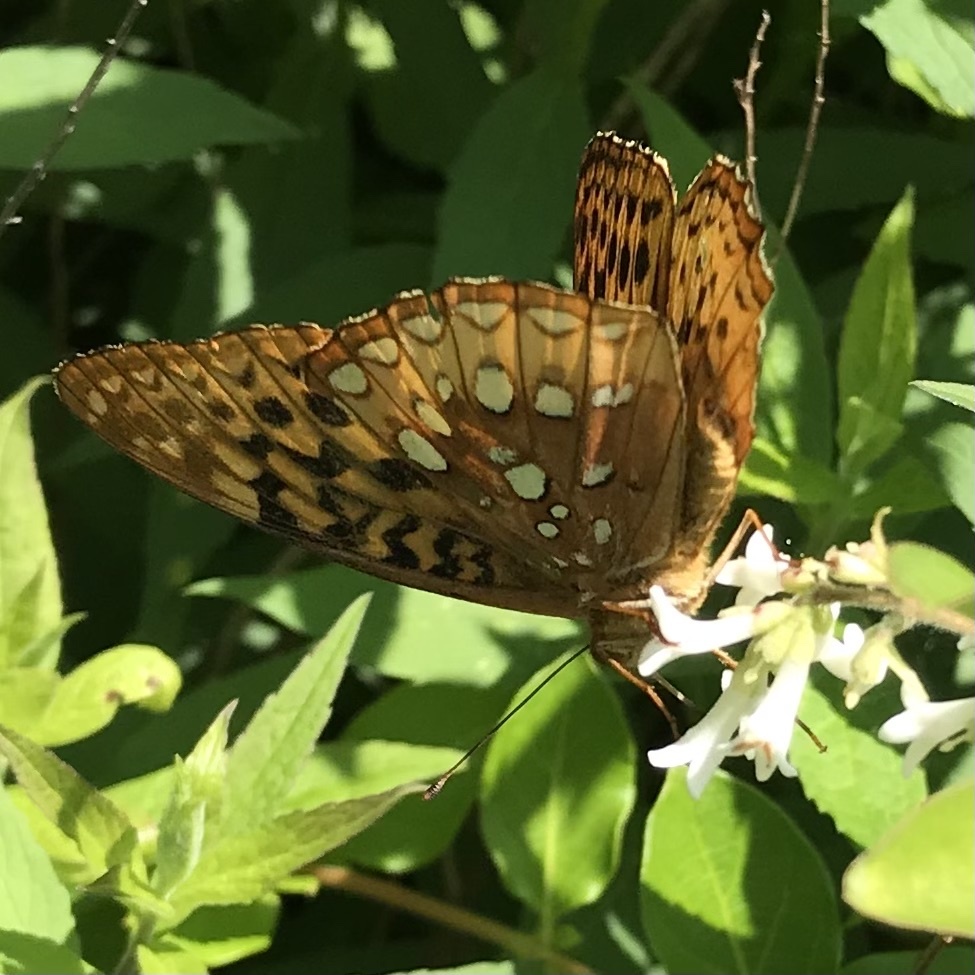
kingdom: Animalia
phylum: Arthropoda
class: Insecta
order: Lepidoptera
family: Nymphalidae
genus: Speyeria
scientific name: Speyeria cybele
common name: Great spangled fritillary
